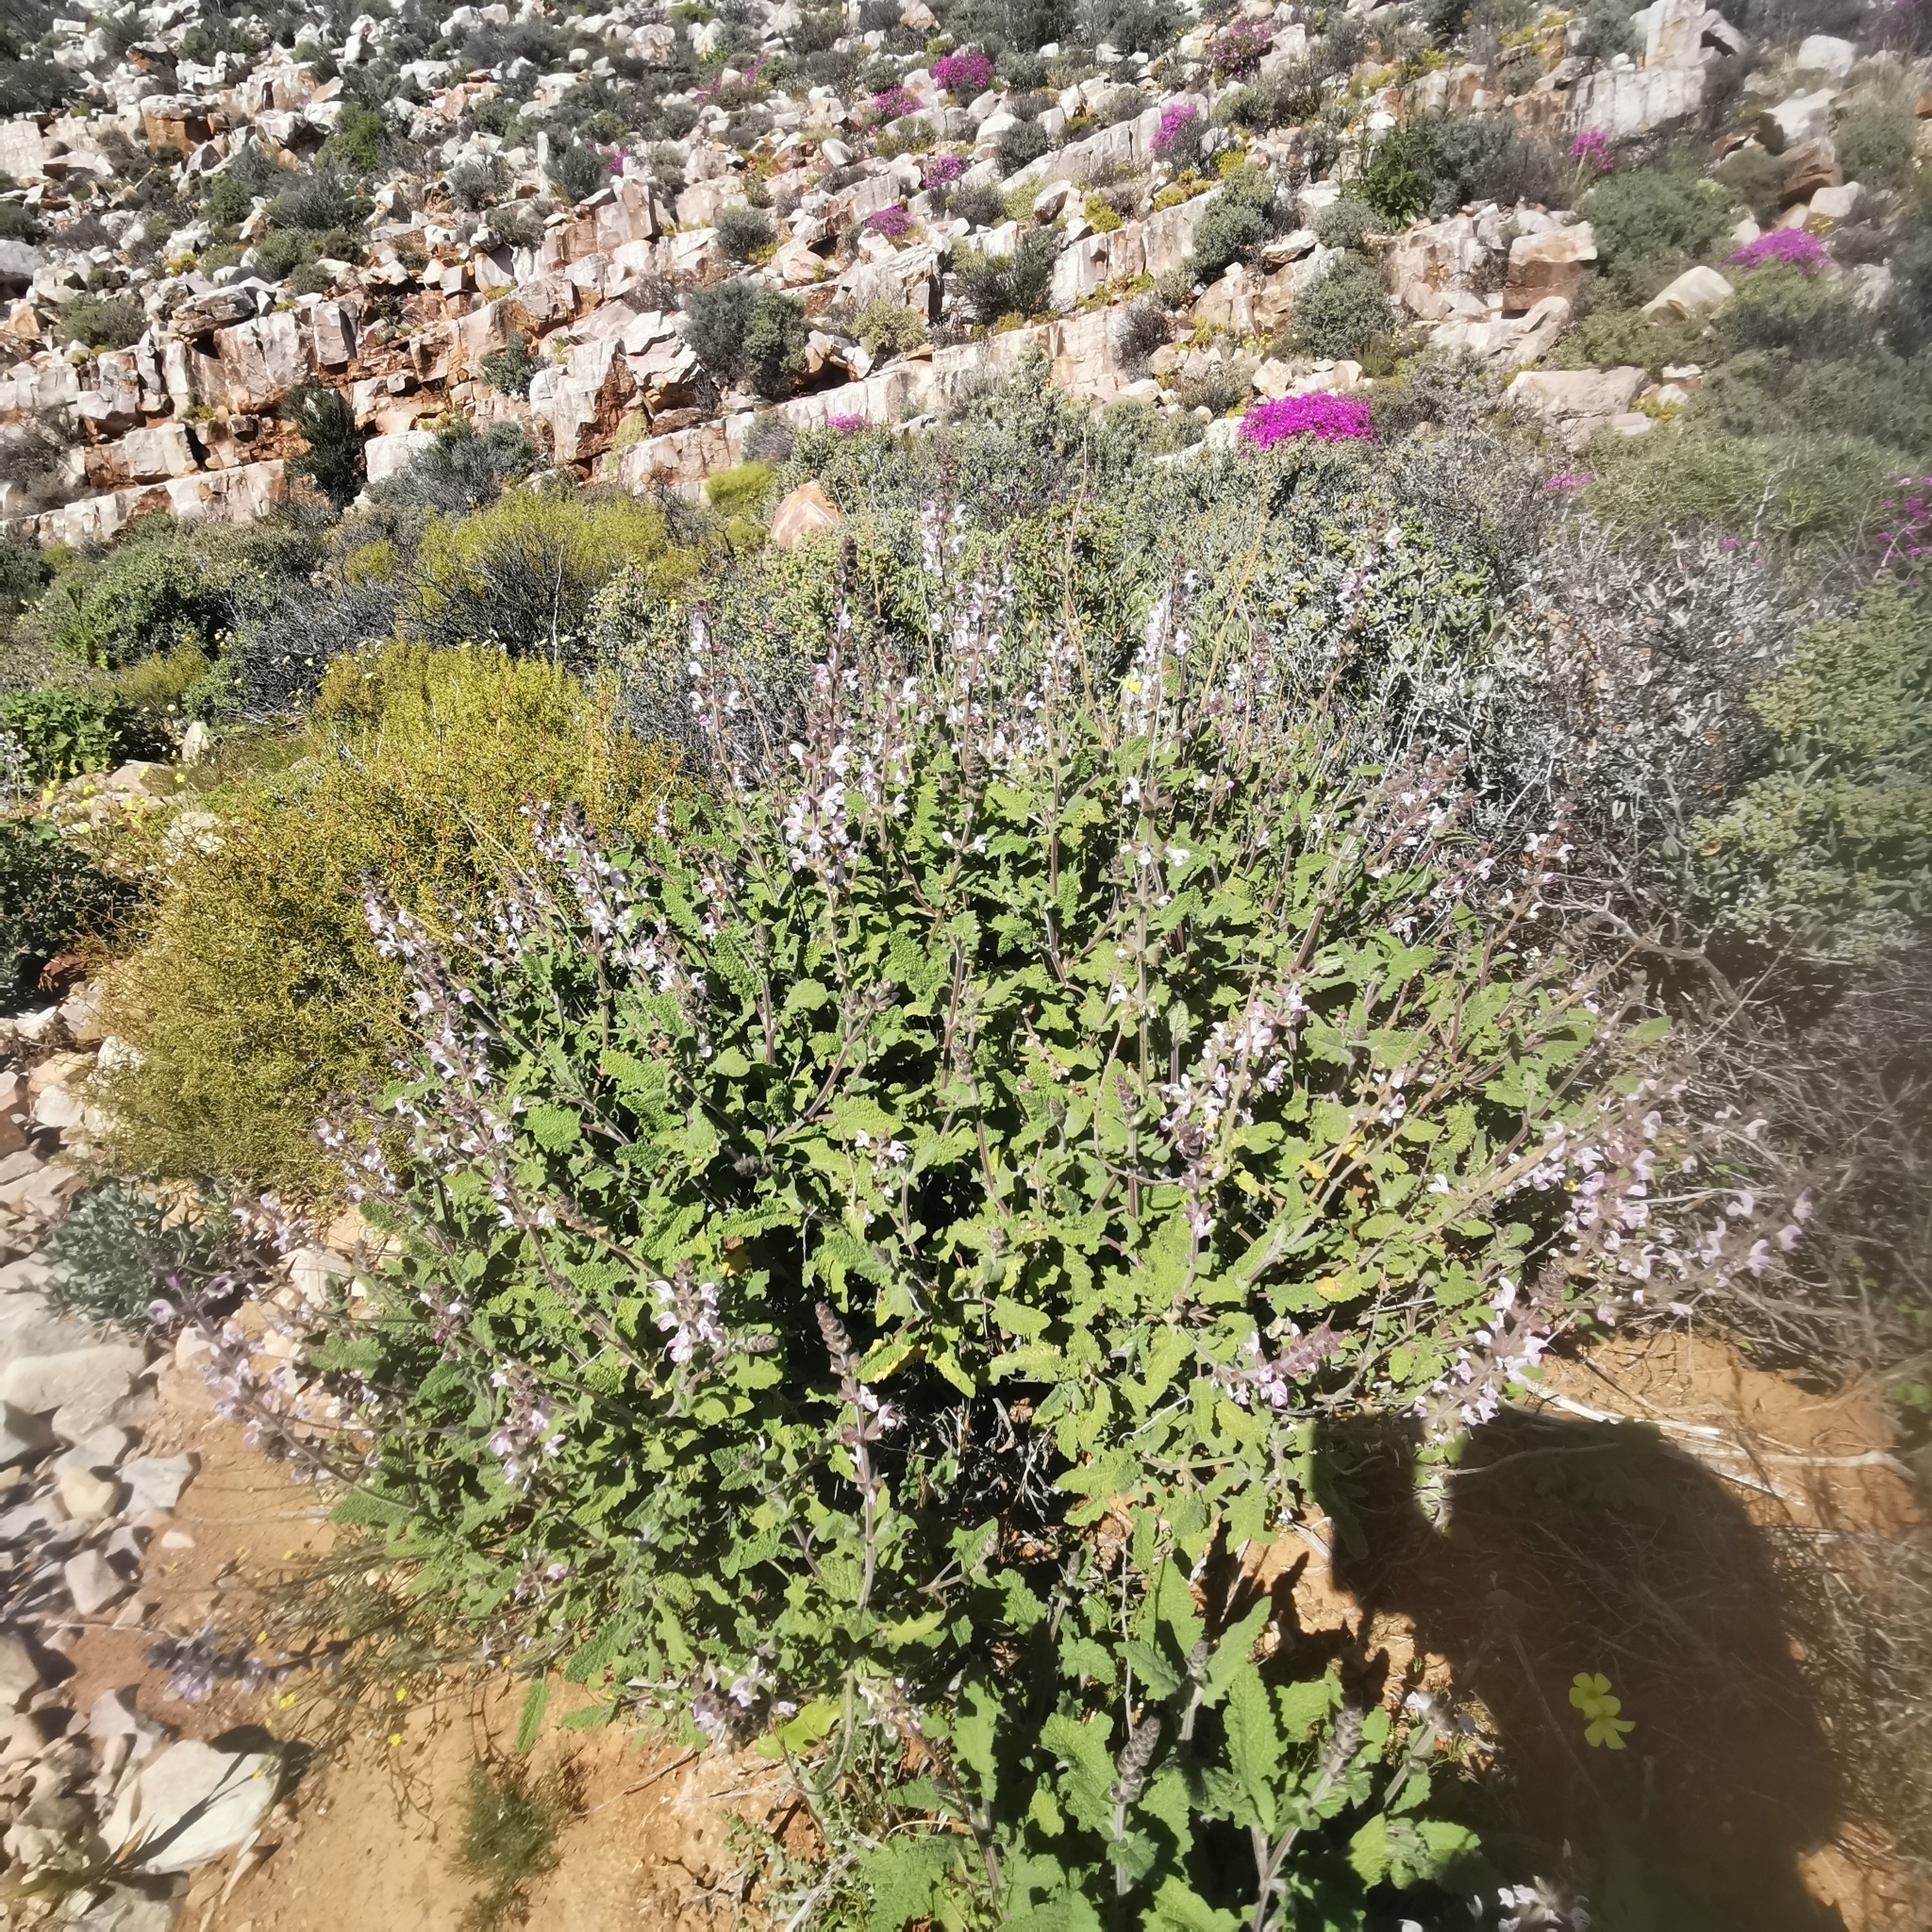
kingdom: Plantae
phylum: Tracheophyta
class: Magnoliopsida
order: Lamiales
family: Lamiaceae
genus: Salvia
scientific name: Salvia disermas
